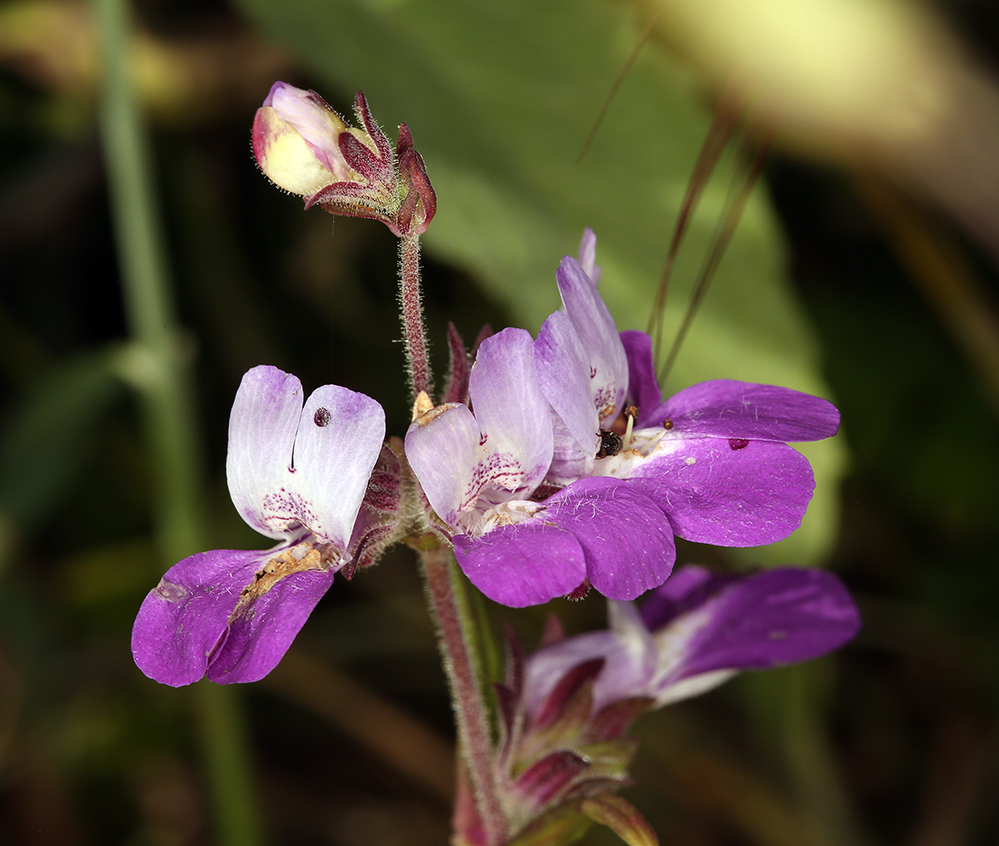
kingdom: Plantae
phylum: Tracheophyta
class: Magnoliopsida
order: Lamiales
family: Plantaginaceae
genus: Collinsia
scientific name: Collinsia heterophylla
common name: Chinese-houses
